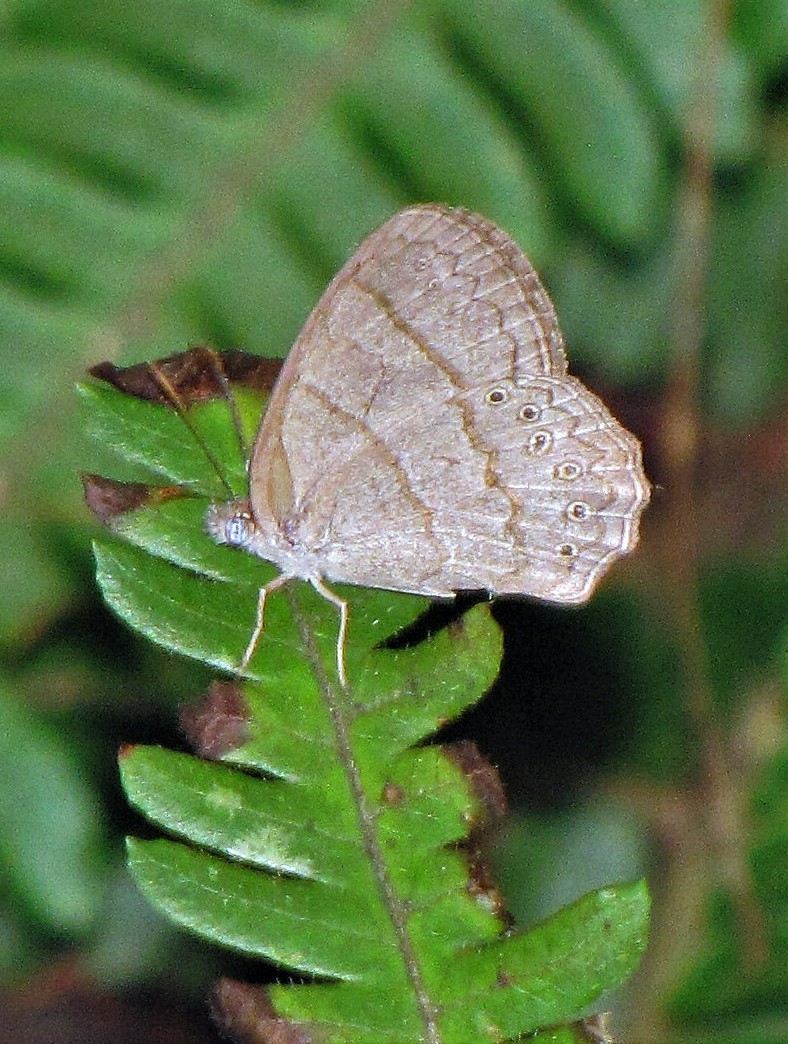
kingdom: Animalia
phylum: Arthropoda
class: Insecta
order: Lepidoptera
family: Nymphalidae
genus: Paryphthimoides
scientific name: Paryphthimoides poltys
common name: Poltys satyr
